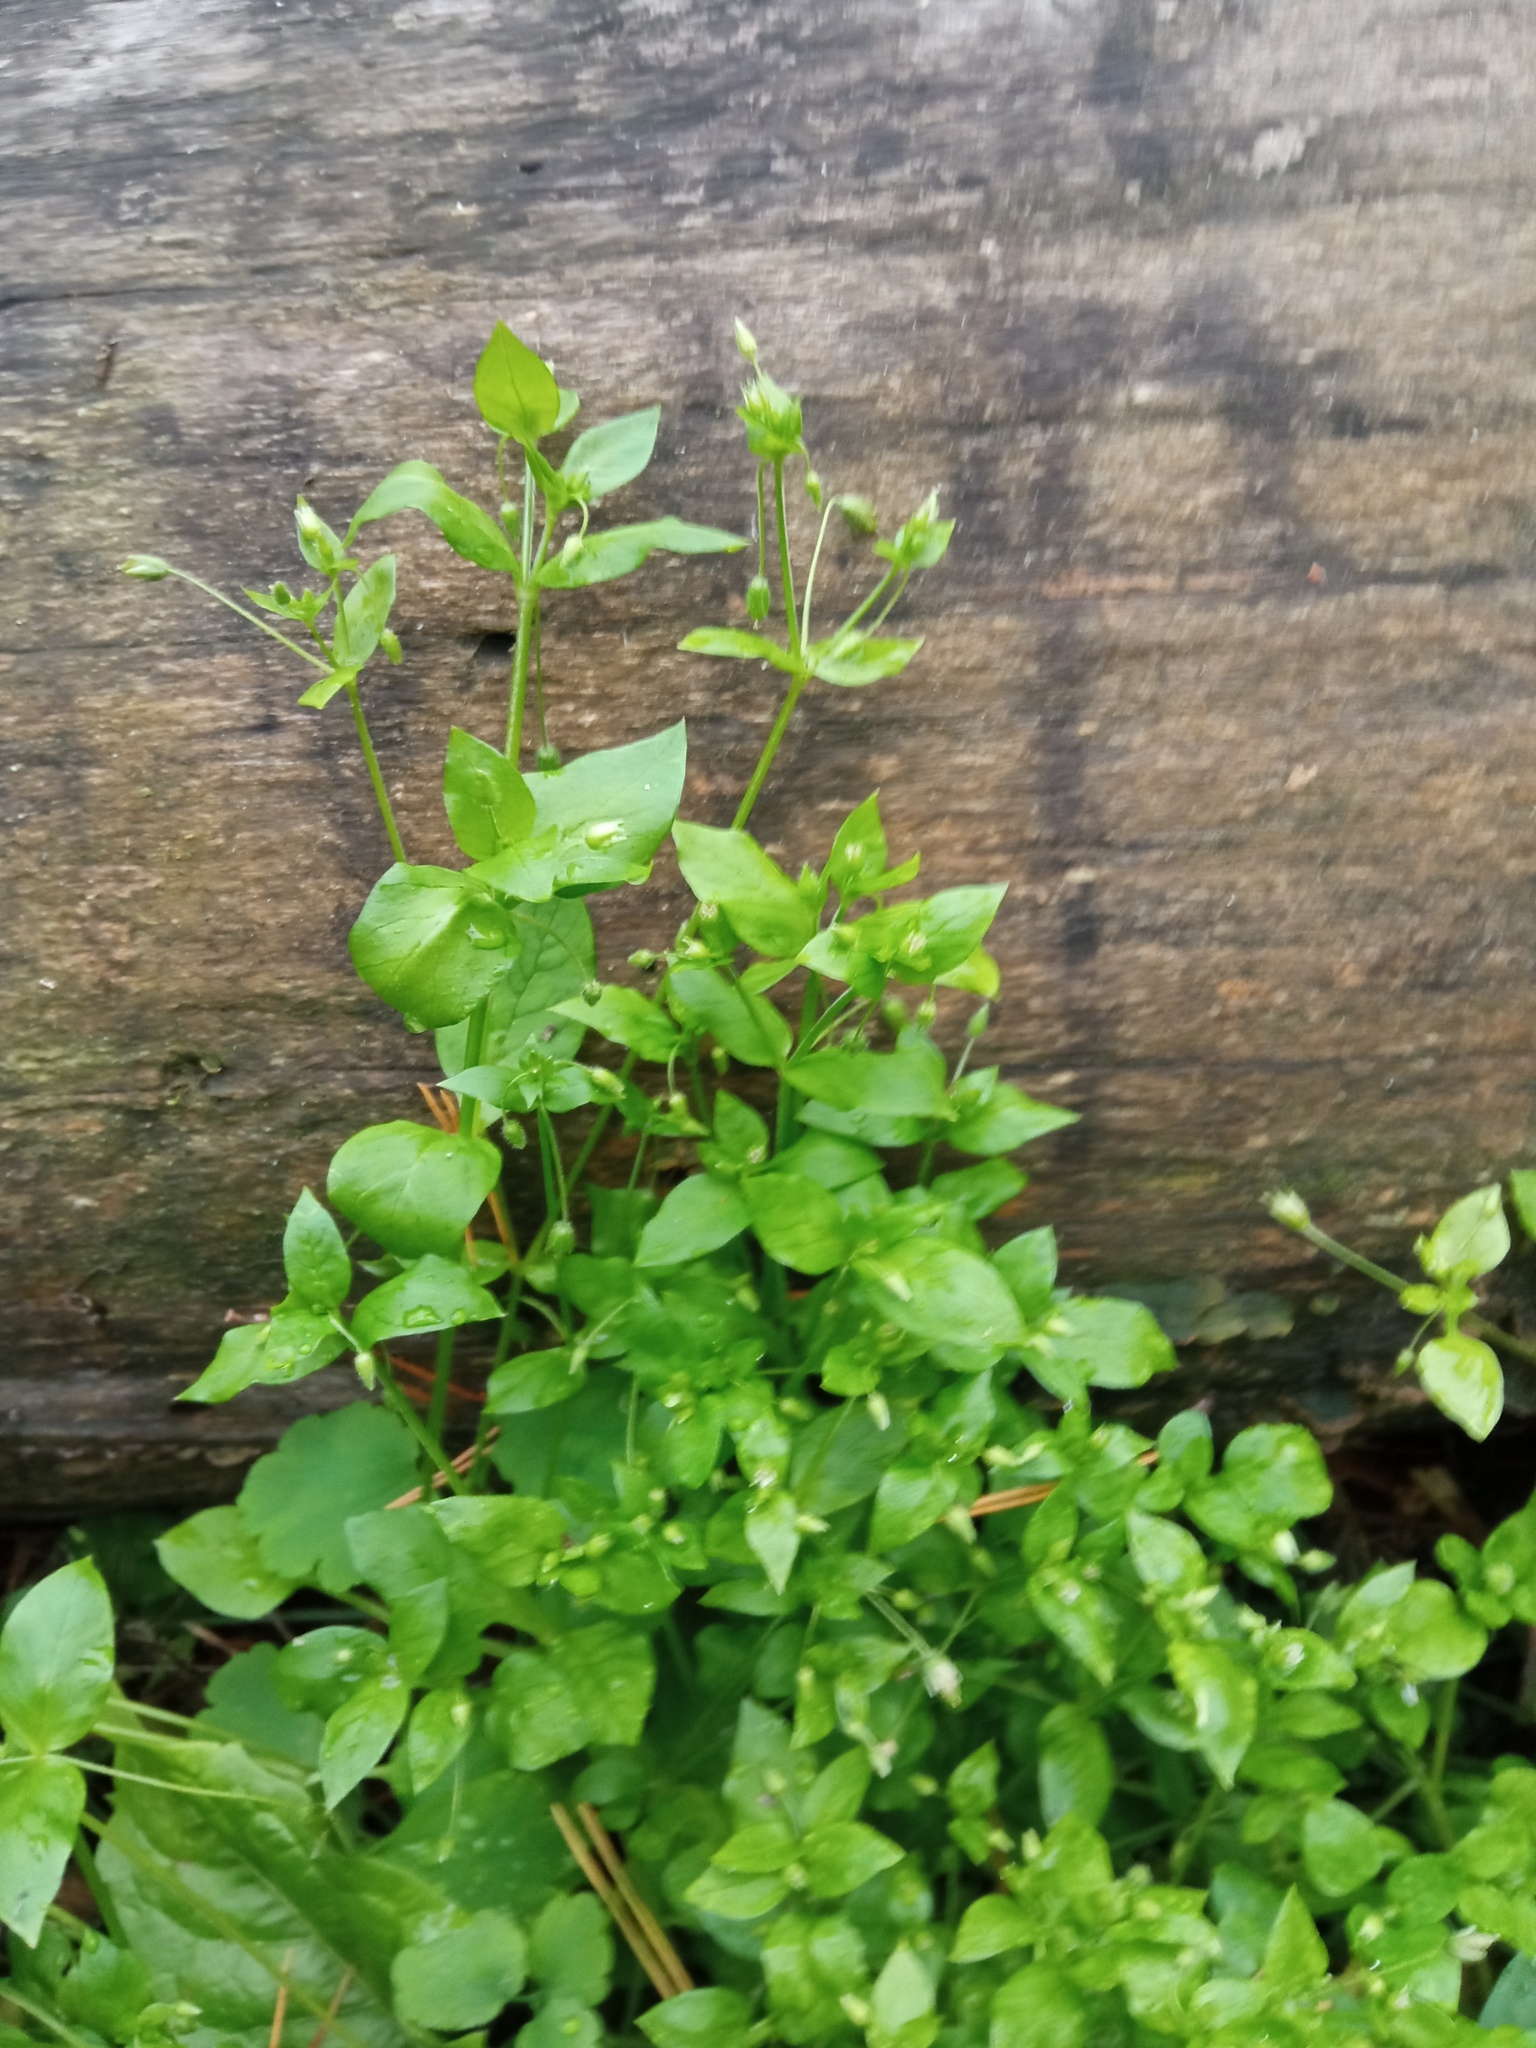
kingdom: Plantae
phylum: Tracheophyta
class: Magnoliopsida
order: Caryophyllales
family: Caryophyllaceae
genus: Stellaria
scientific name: Stellaria media
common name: Common chickweed
